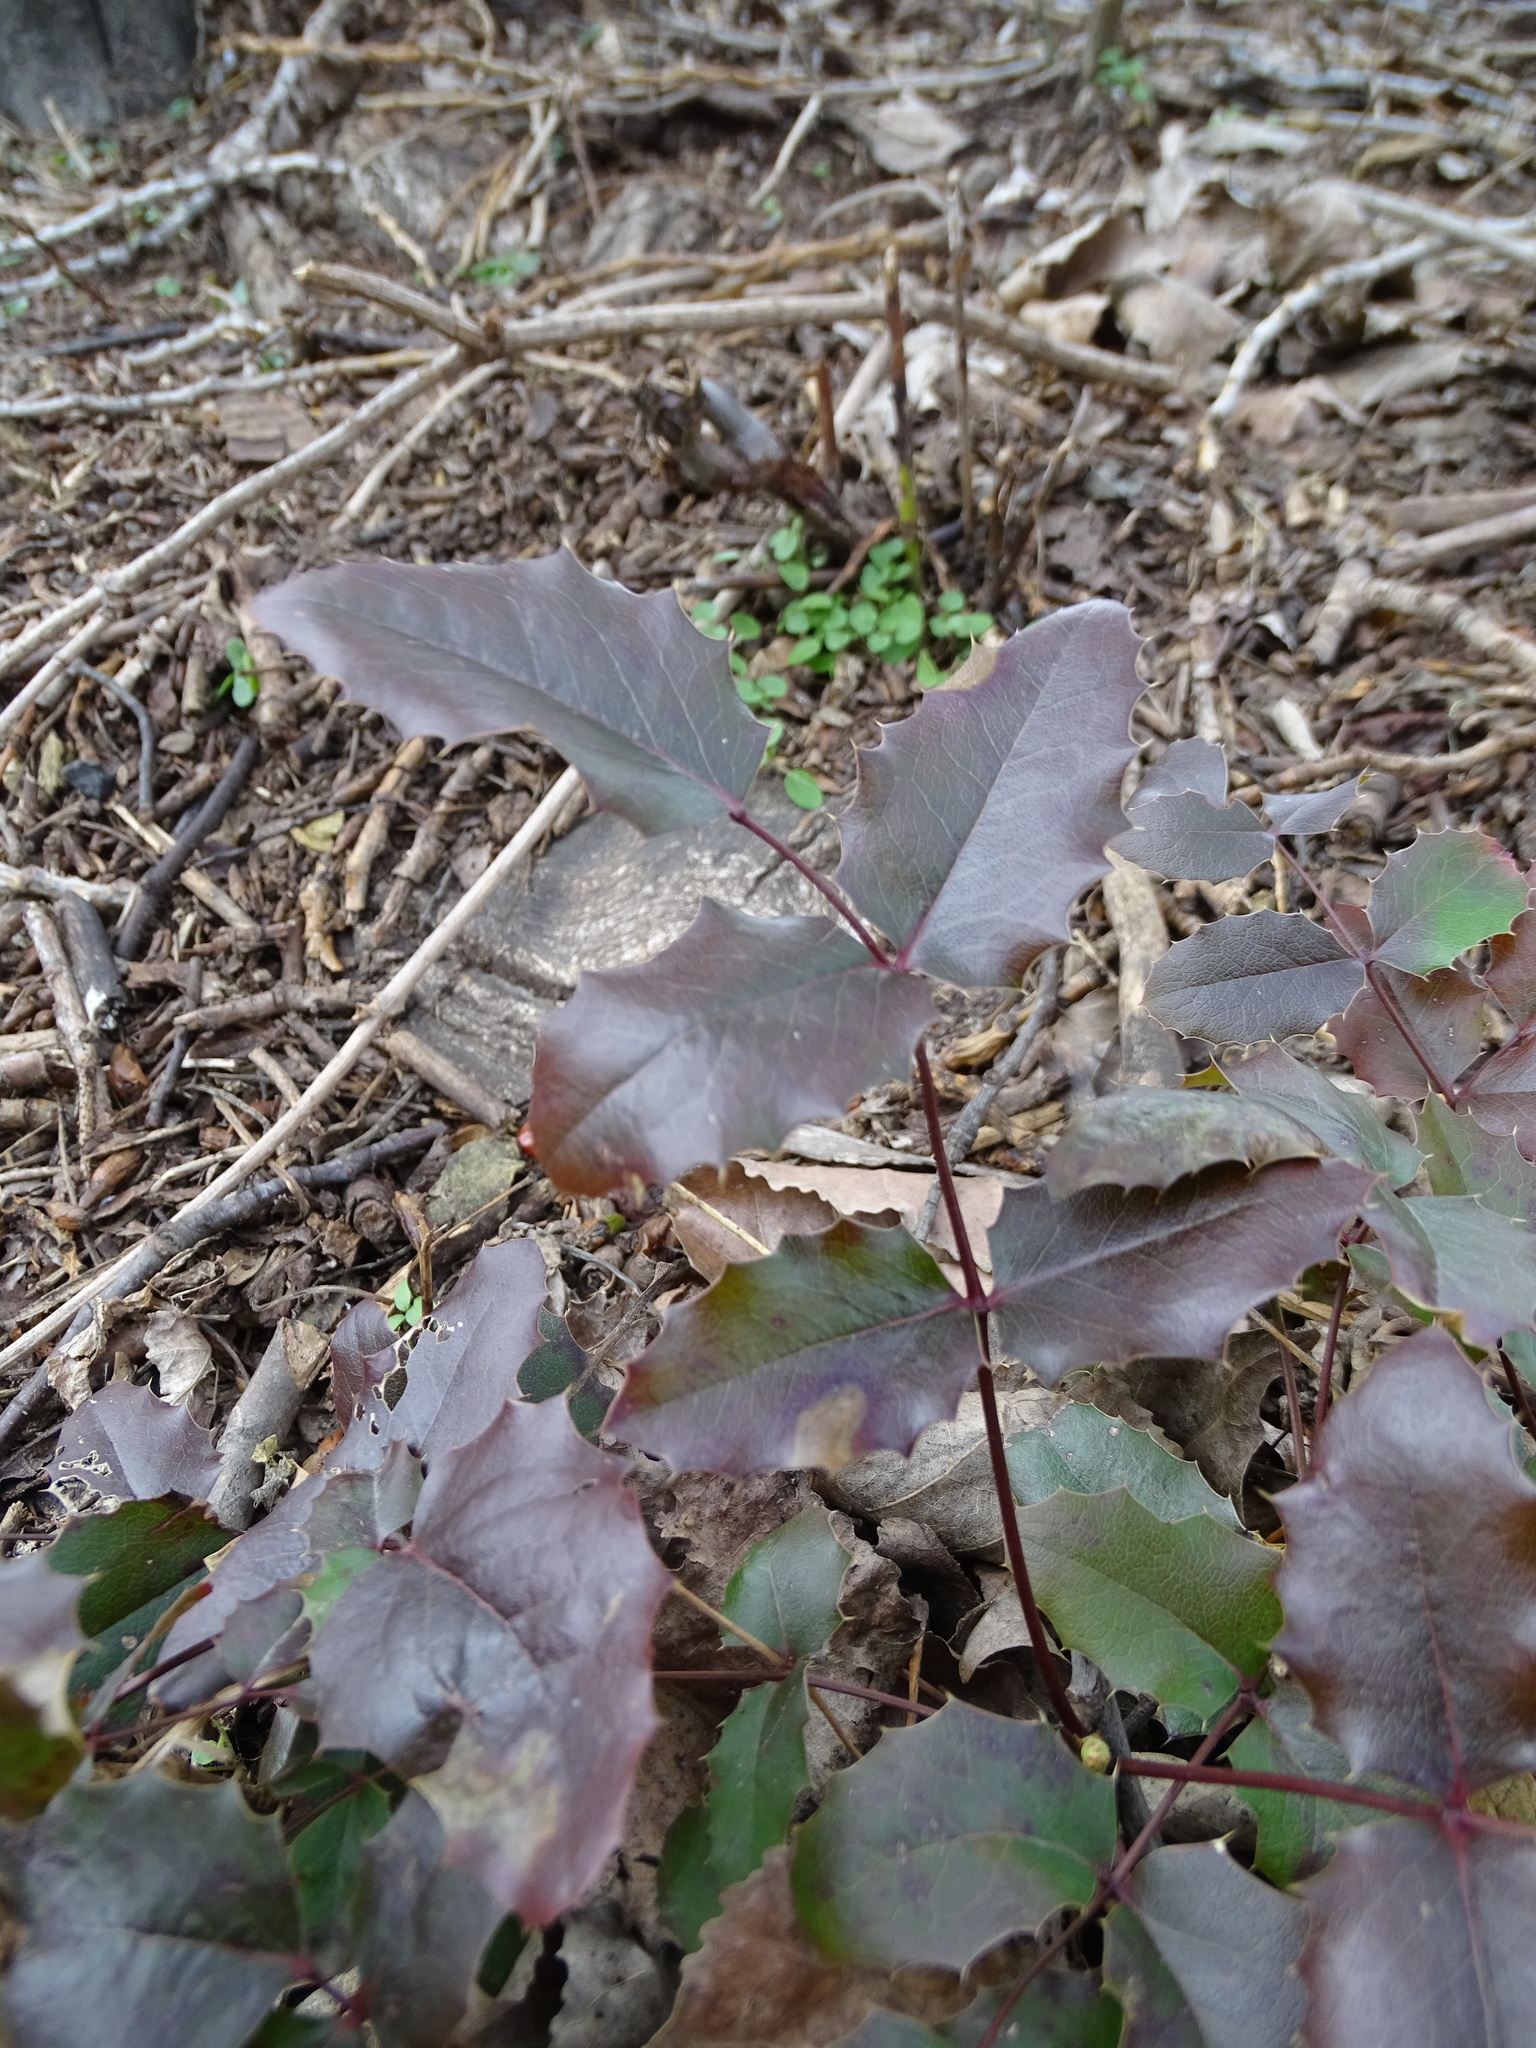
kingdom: Plantae
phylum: Tracheophyta
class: Magnoliopsida
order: Ranunculales
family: Berberidaceae
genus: Mahonia
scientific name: Mahonia aquifolium
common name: Oregon-grape
